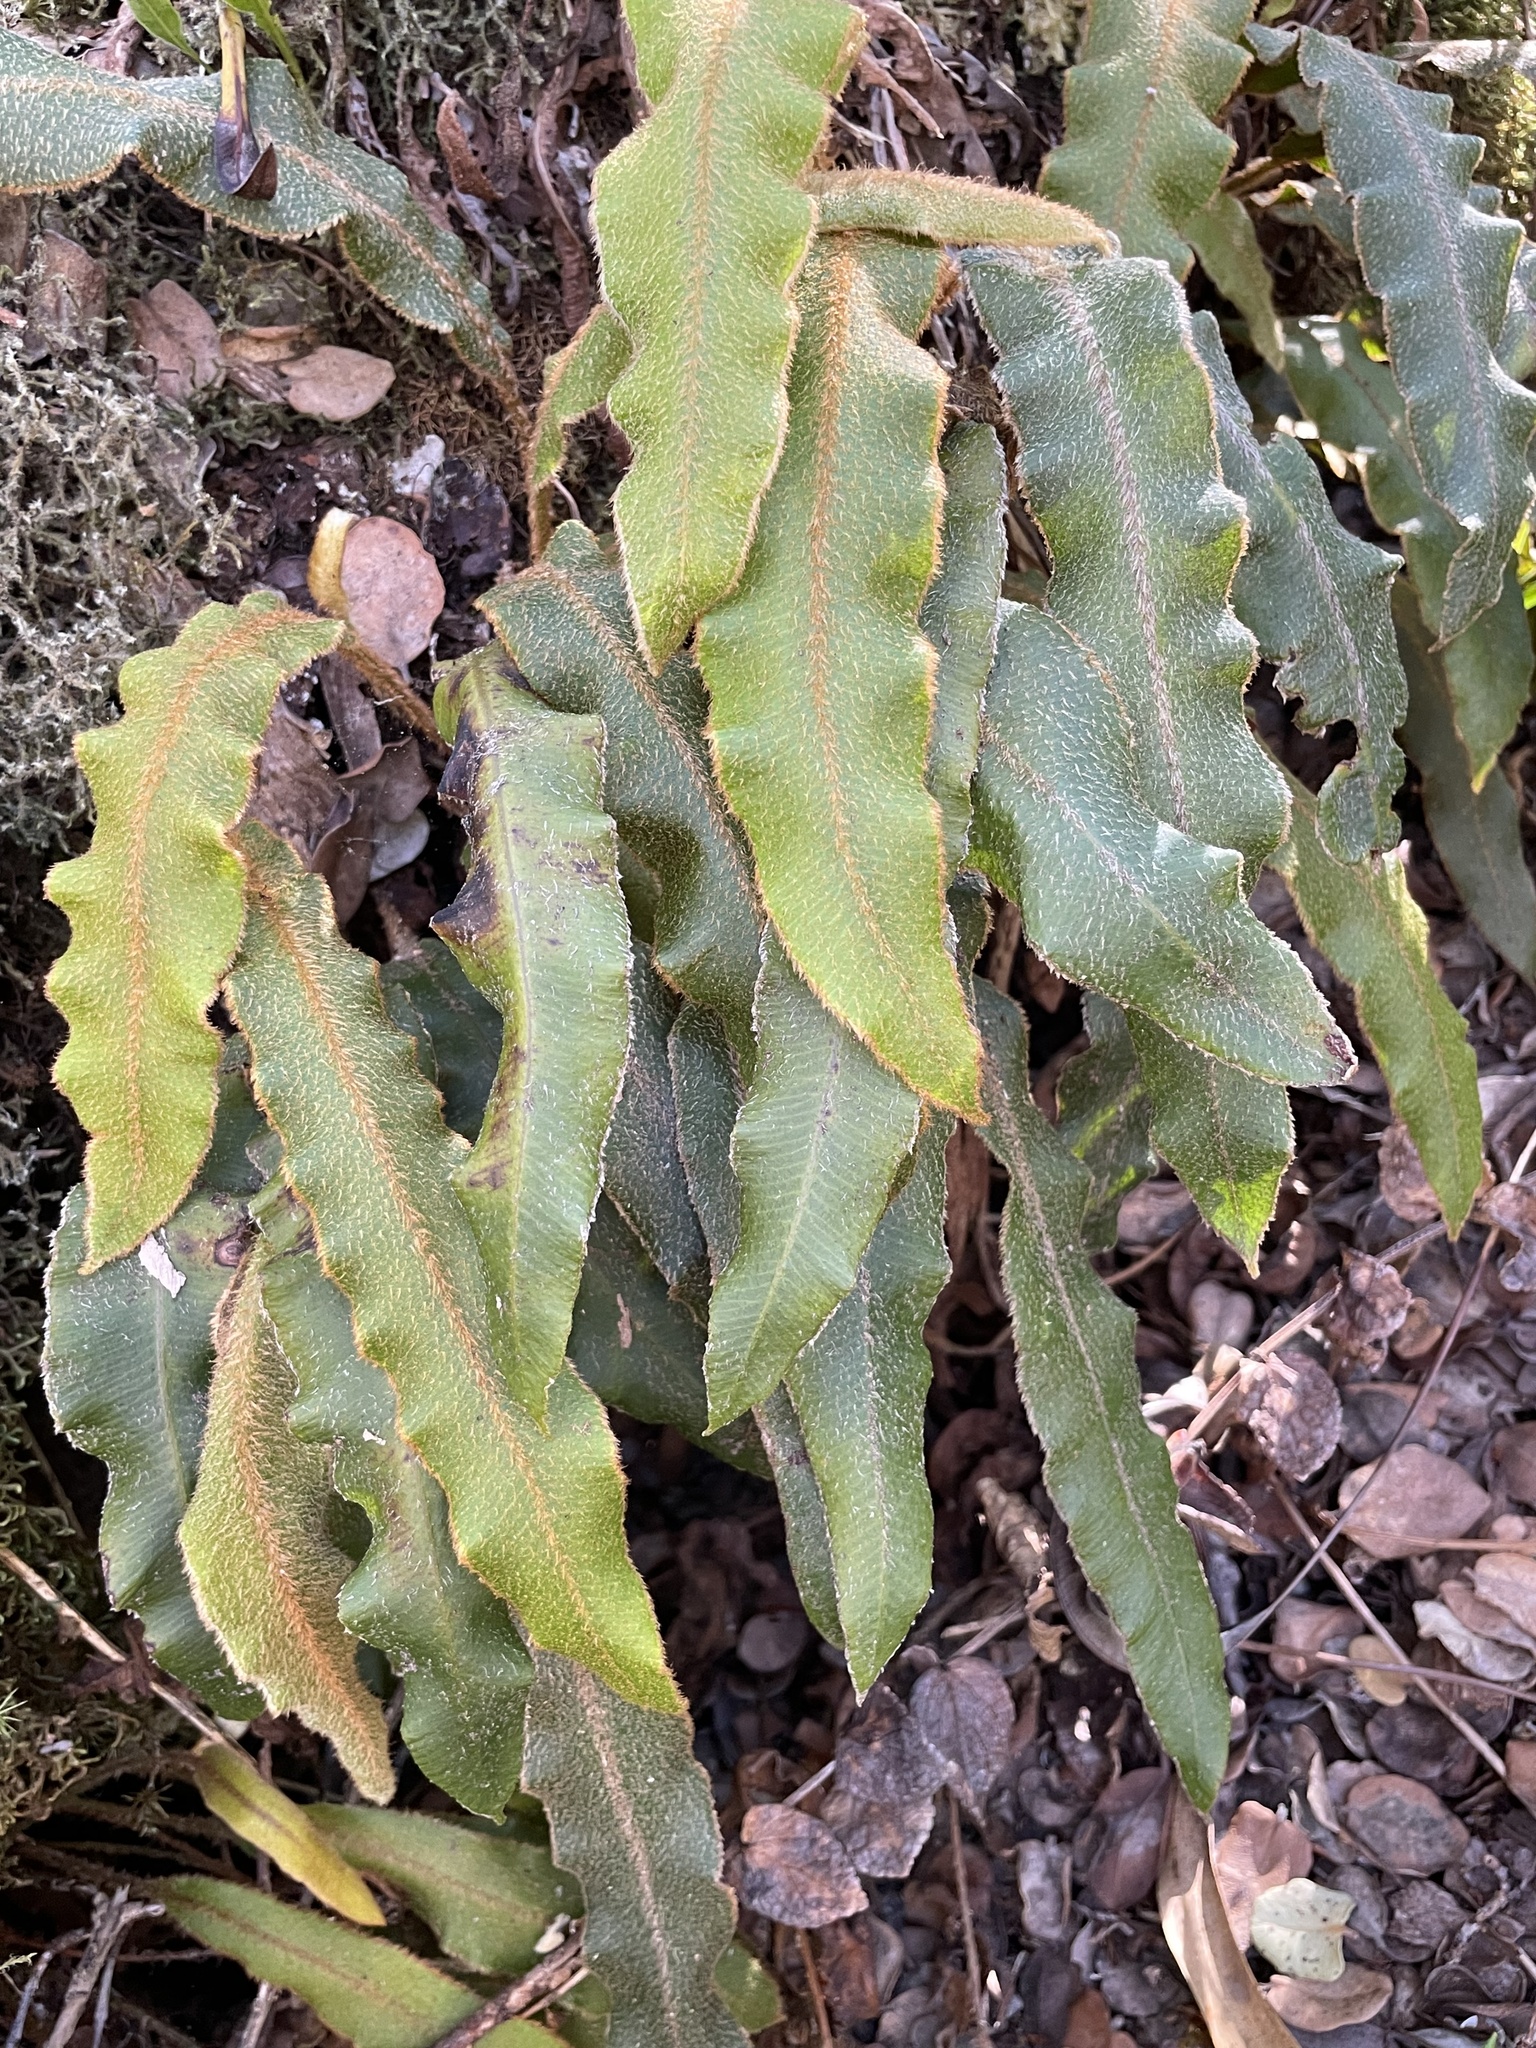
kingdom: Plantae
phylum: Tracheophyta
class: Polypodiopsida
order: Polypodiales
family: Dryopteridaceae
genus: Elaphoglossum
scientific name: Elaphoglossum paleaceum
